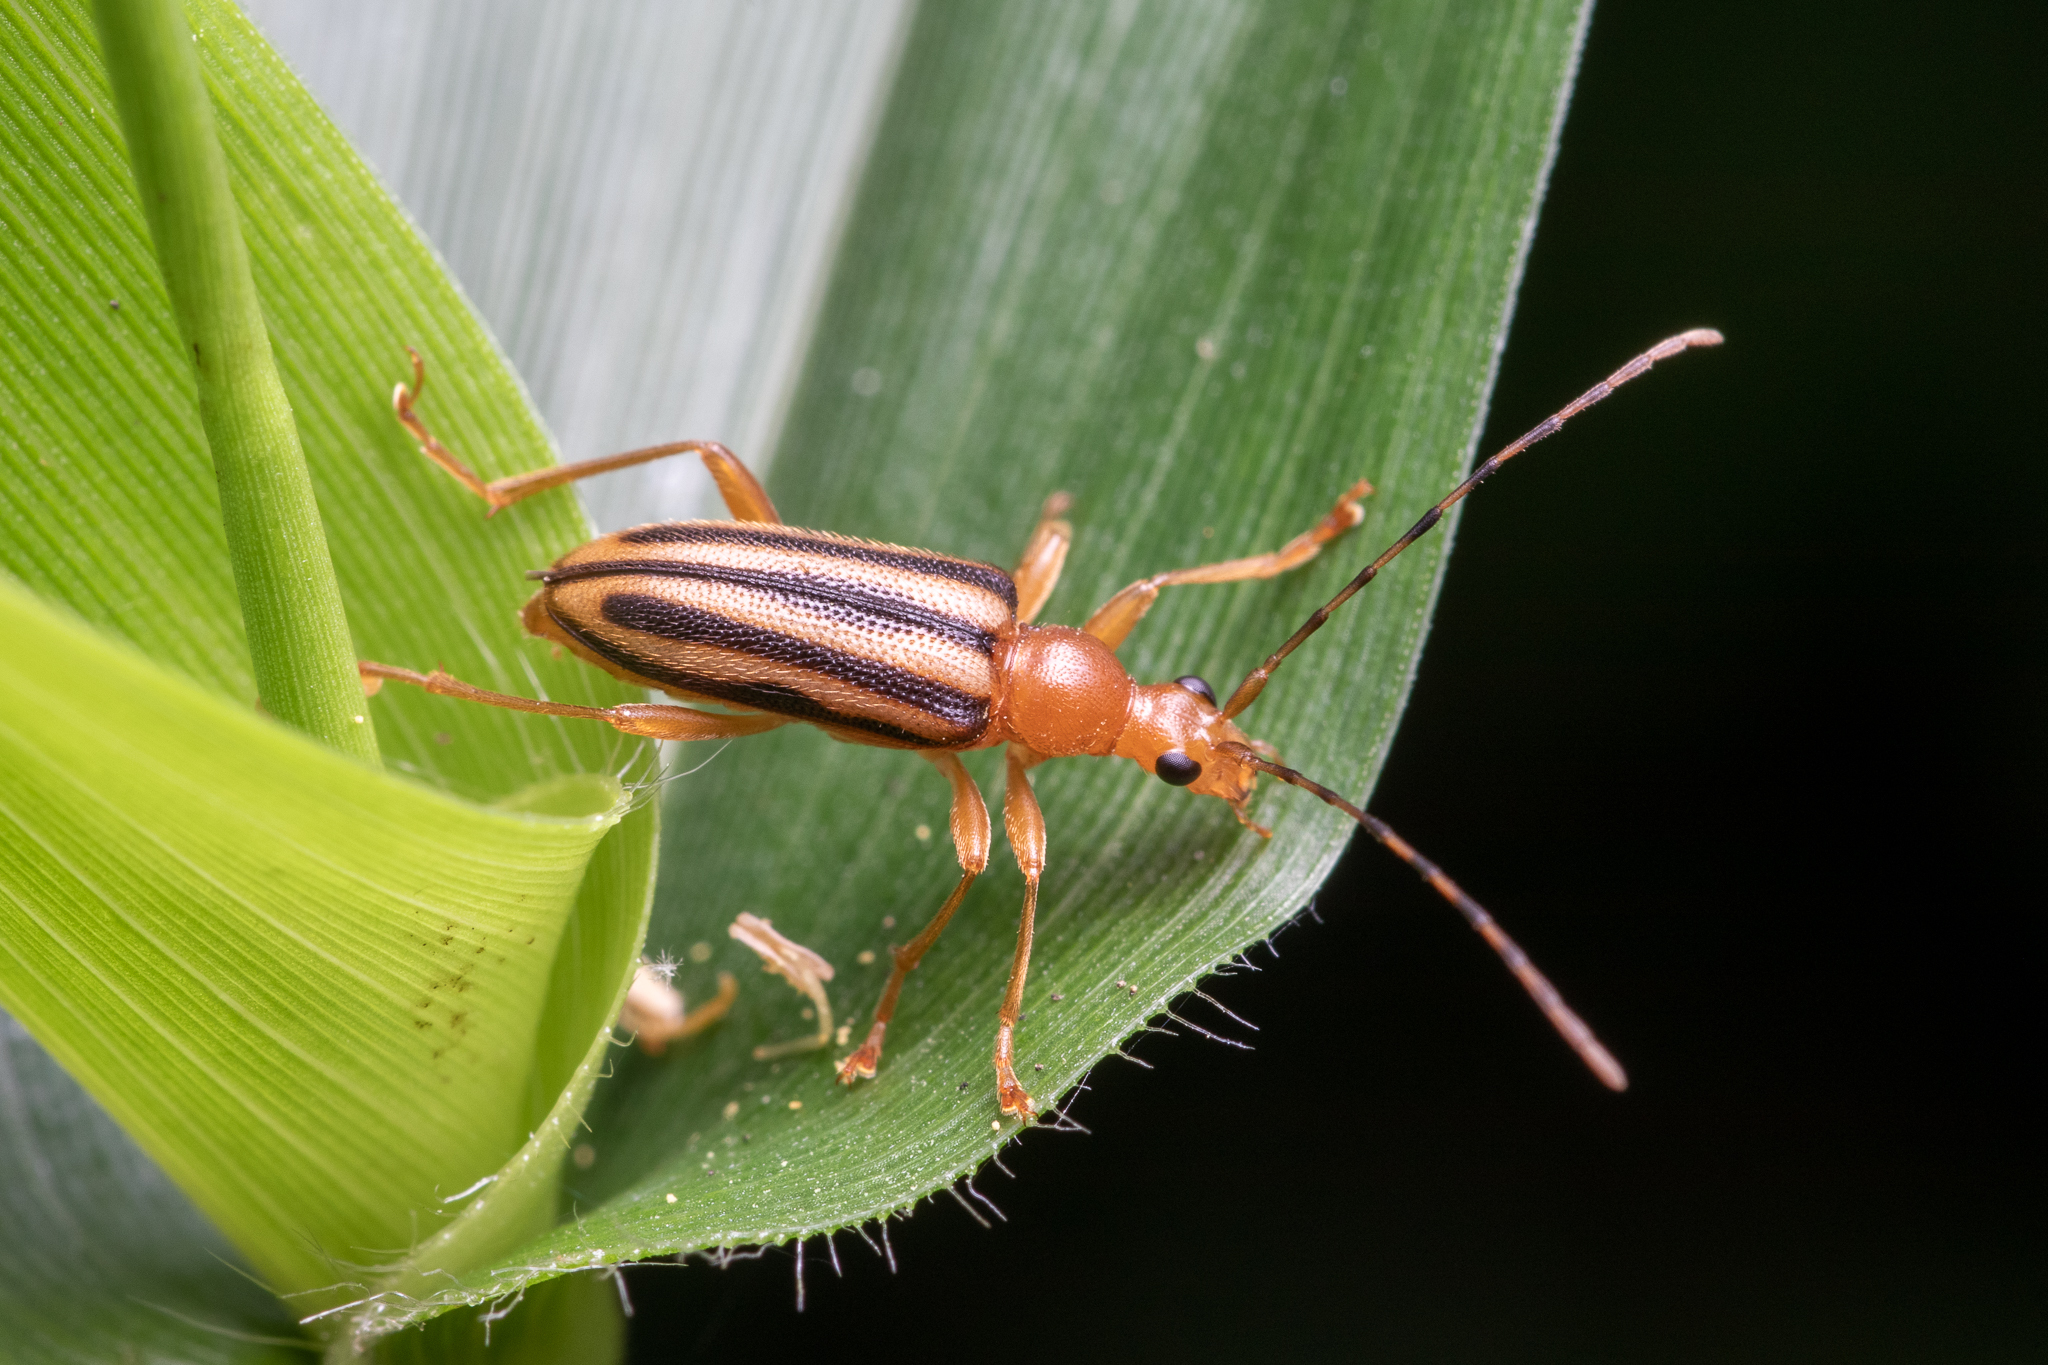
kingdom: Animalia
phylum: Arthropoda
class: Insecta
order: Coleoptera
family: Cerambycidae
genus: Metacmaeops
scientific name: Metacmaeops vittata
